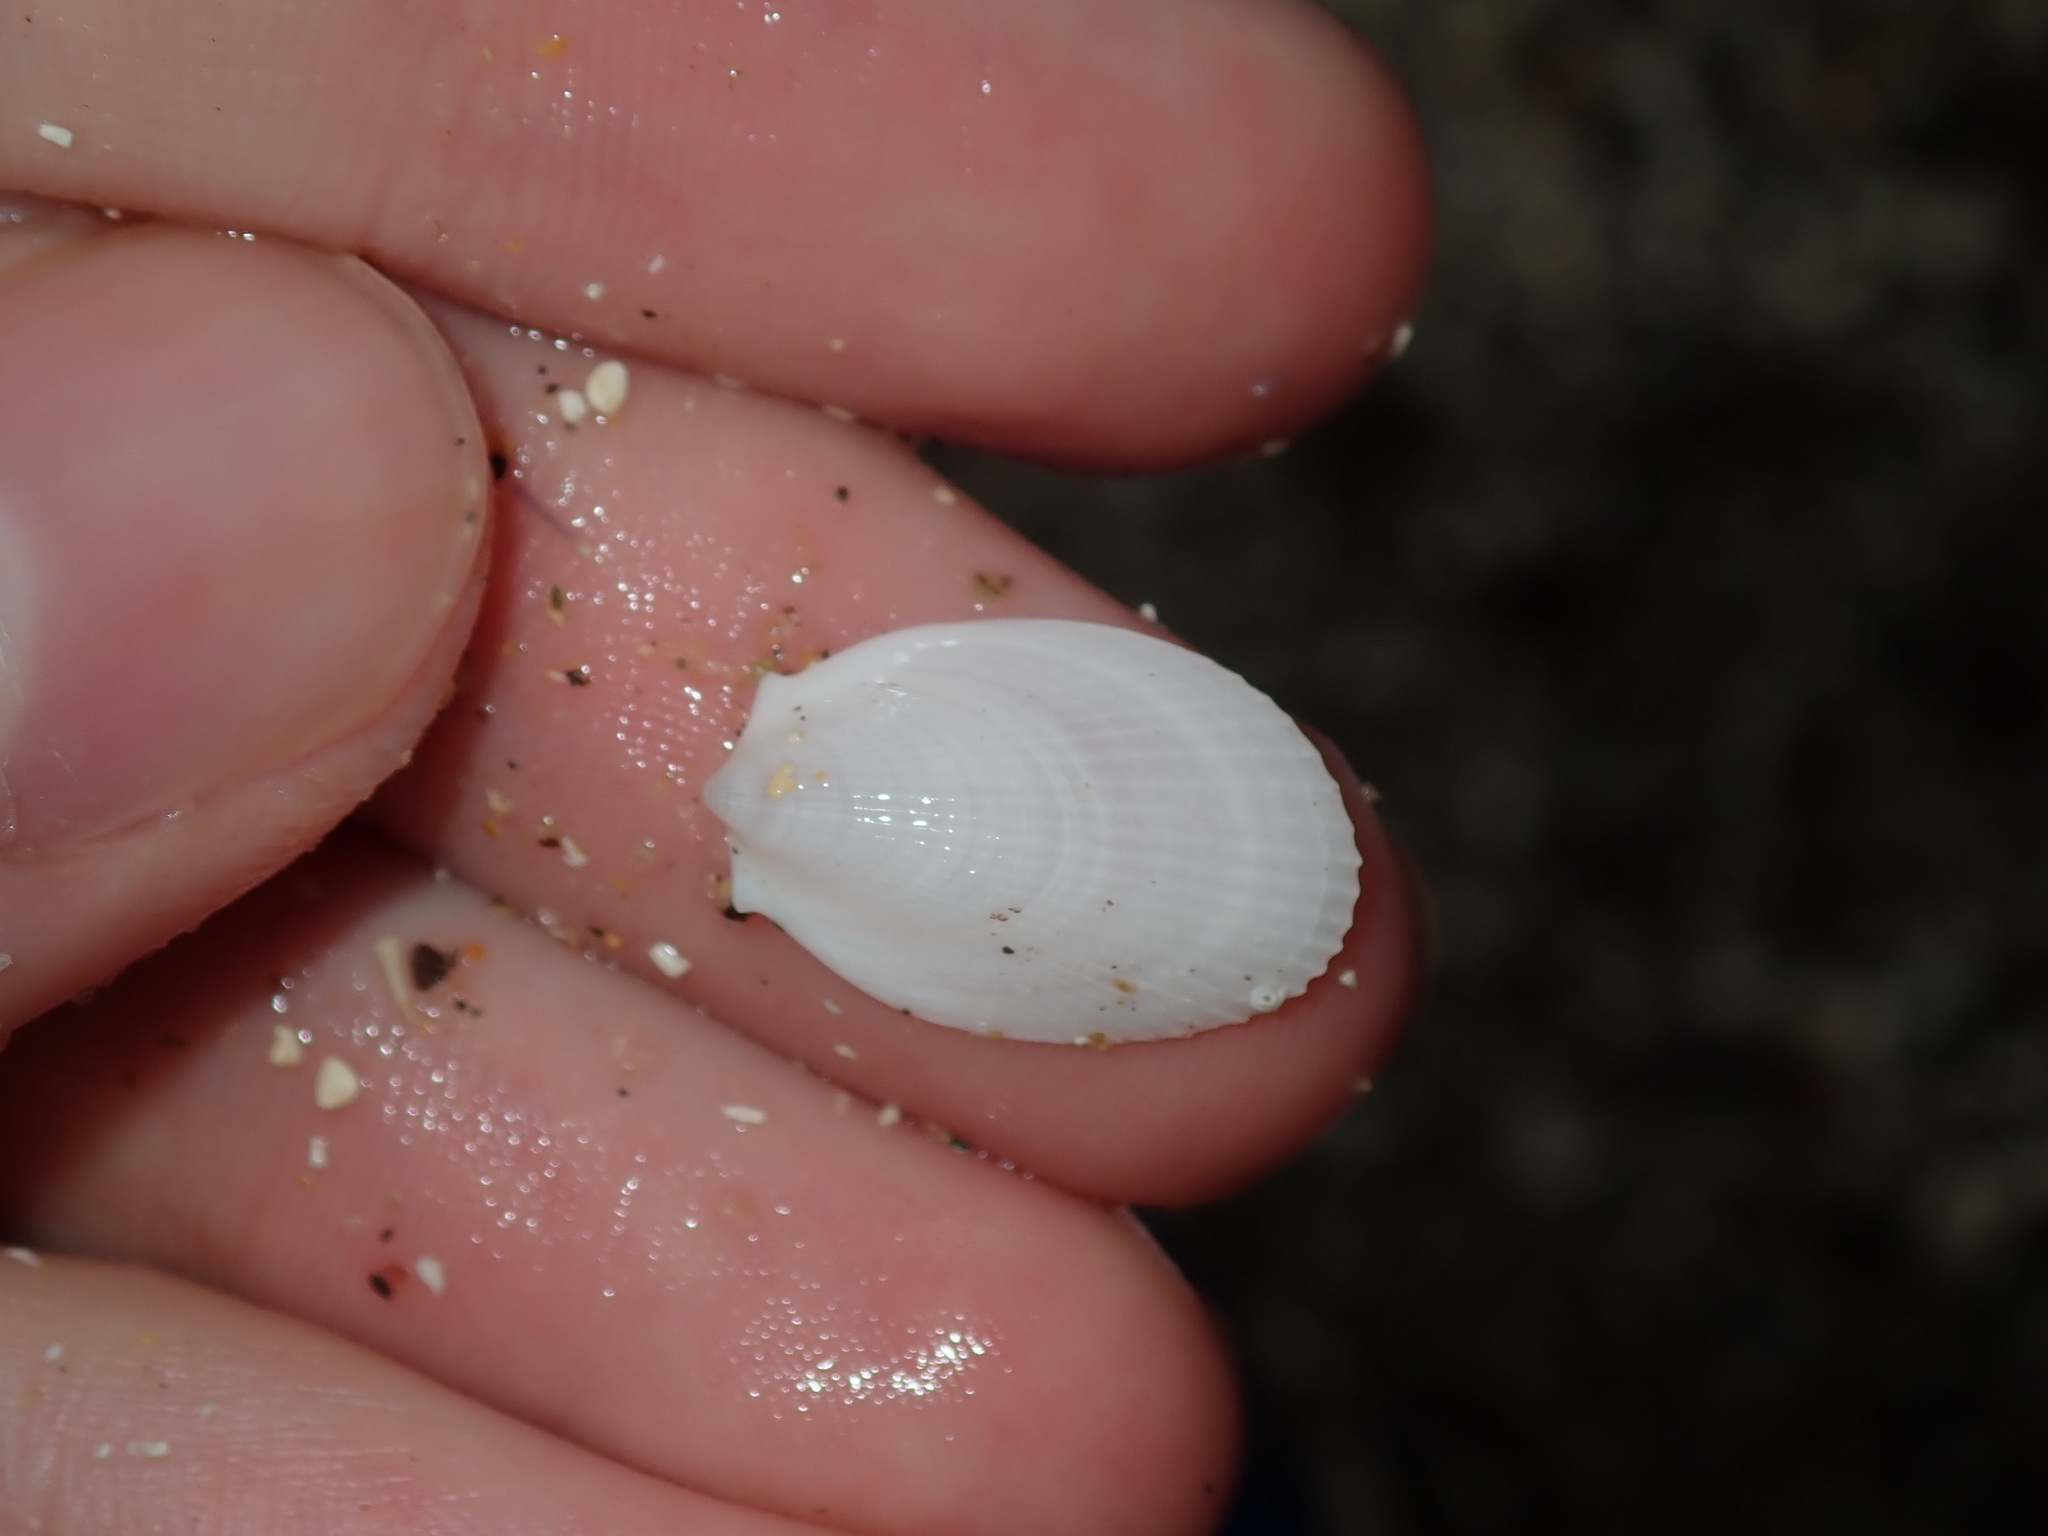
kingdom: Animalia
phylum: Mollusca
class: Bivalvia
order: Limida
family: Limidae
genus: Limatula
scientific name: Limatula strangei
